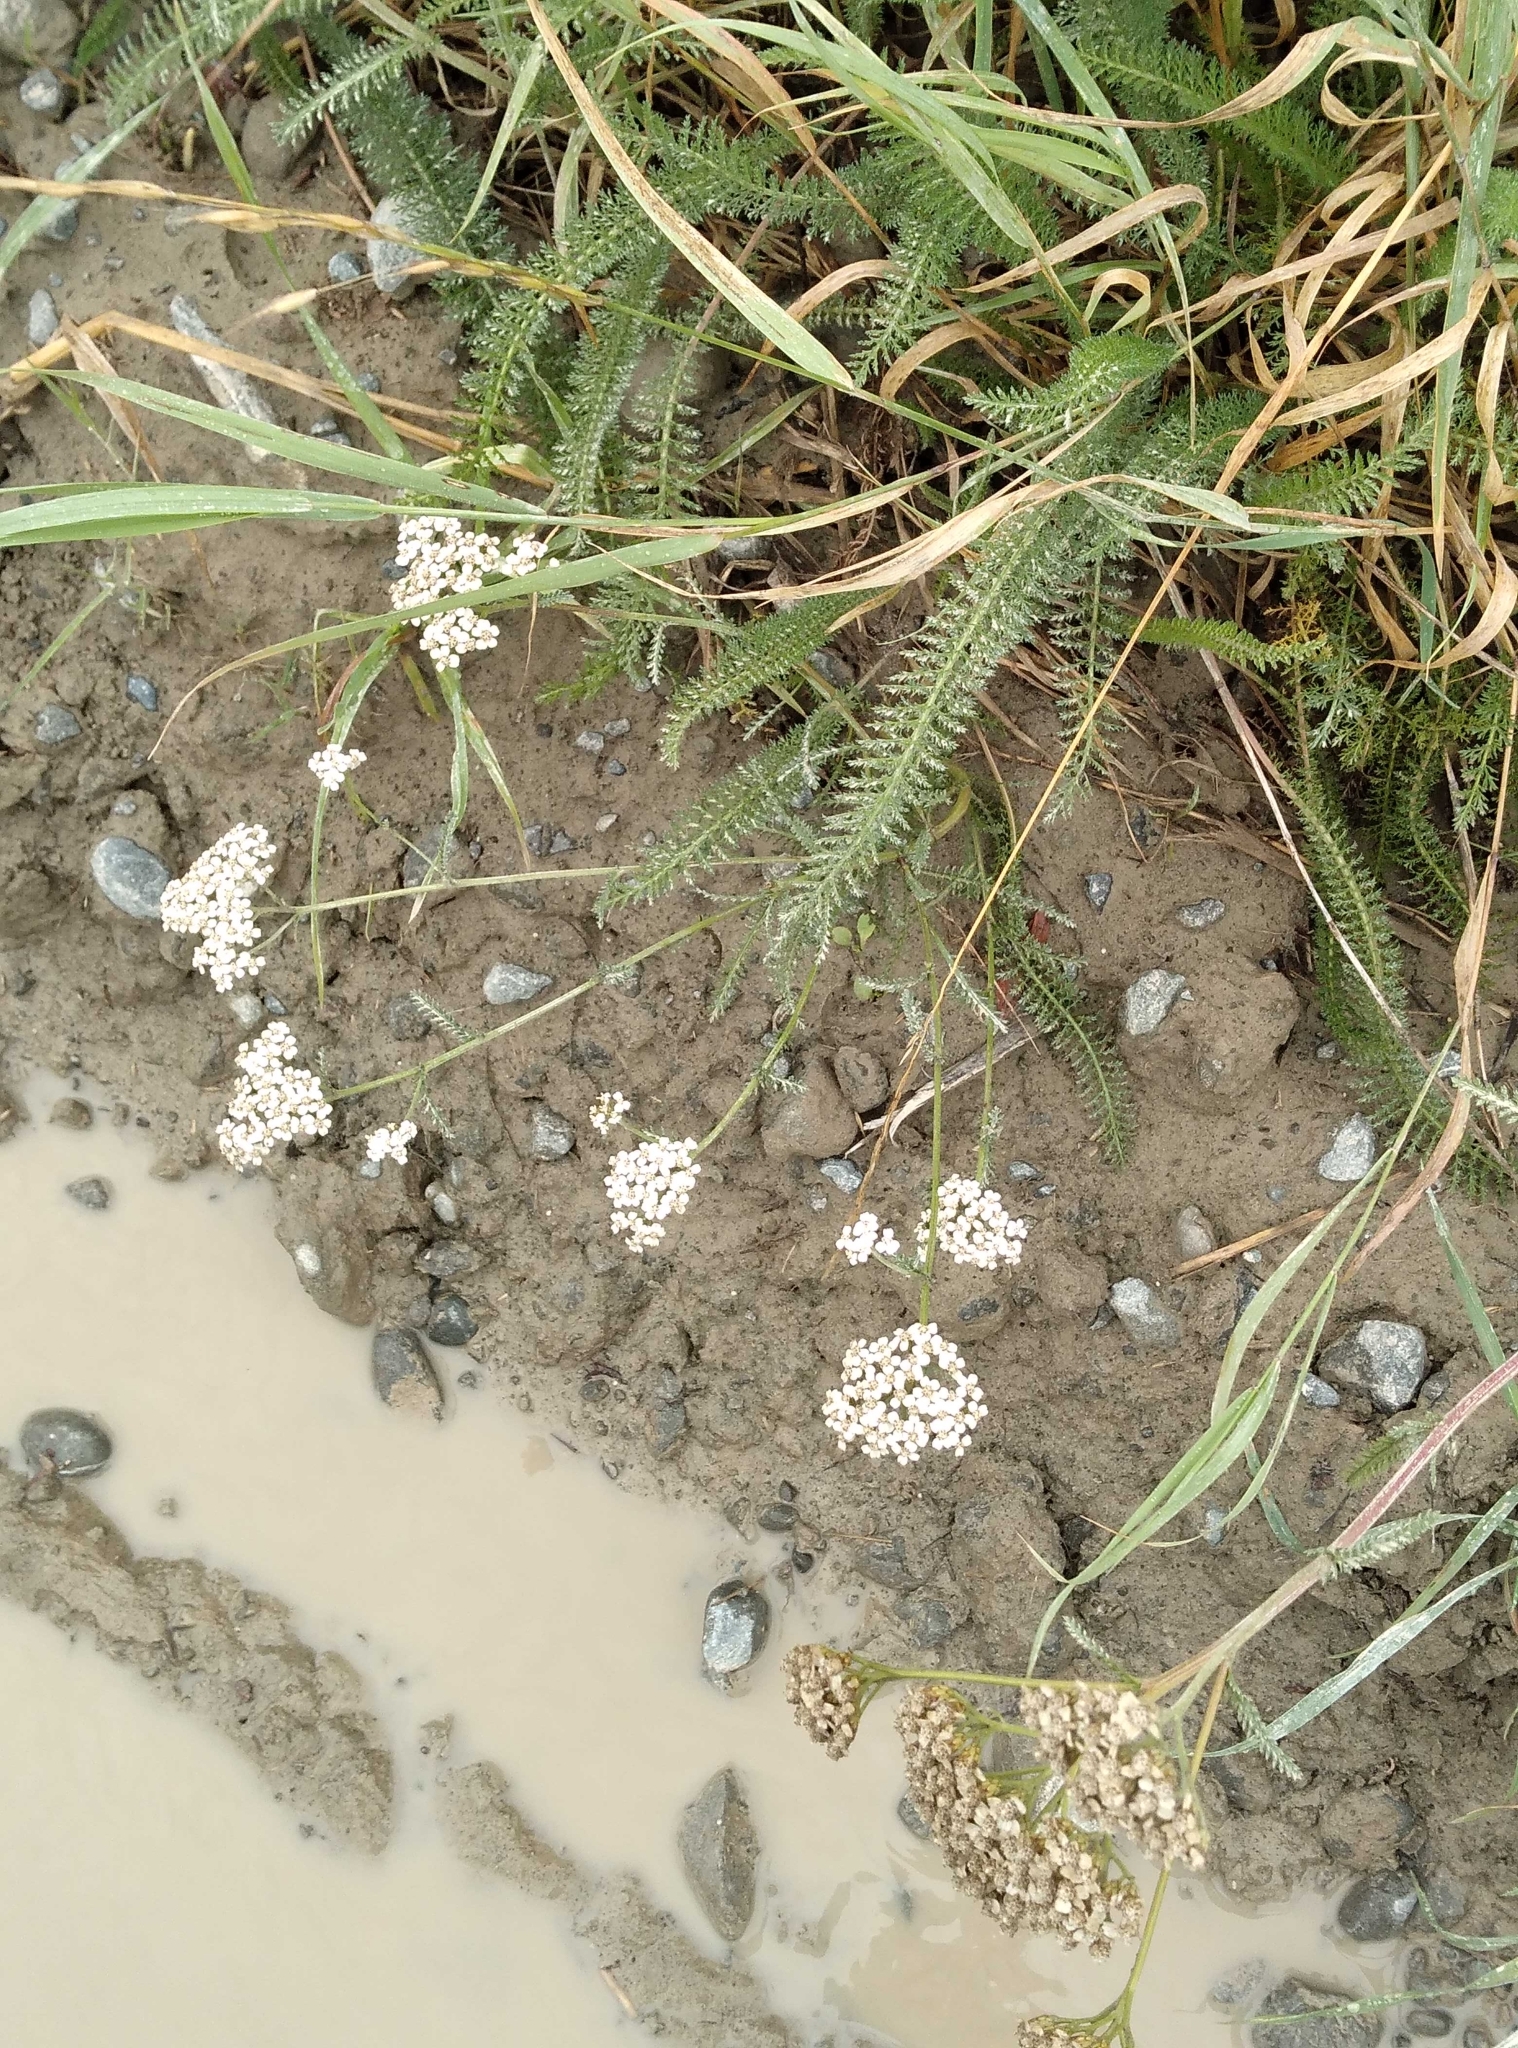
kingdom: Plantae
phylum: Tracheophyta
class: Magnoliopsida
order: Asterales
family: Asteraceae
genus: Achillea
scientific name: Achillea millefolium
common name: Yarrow
